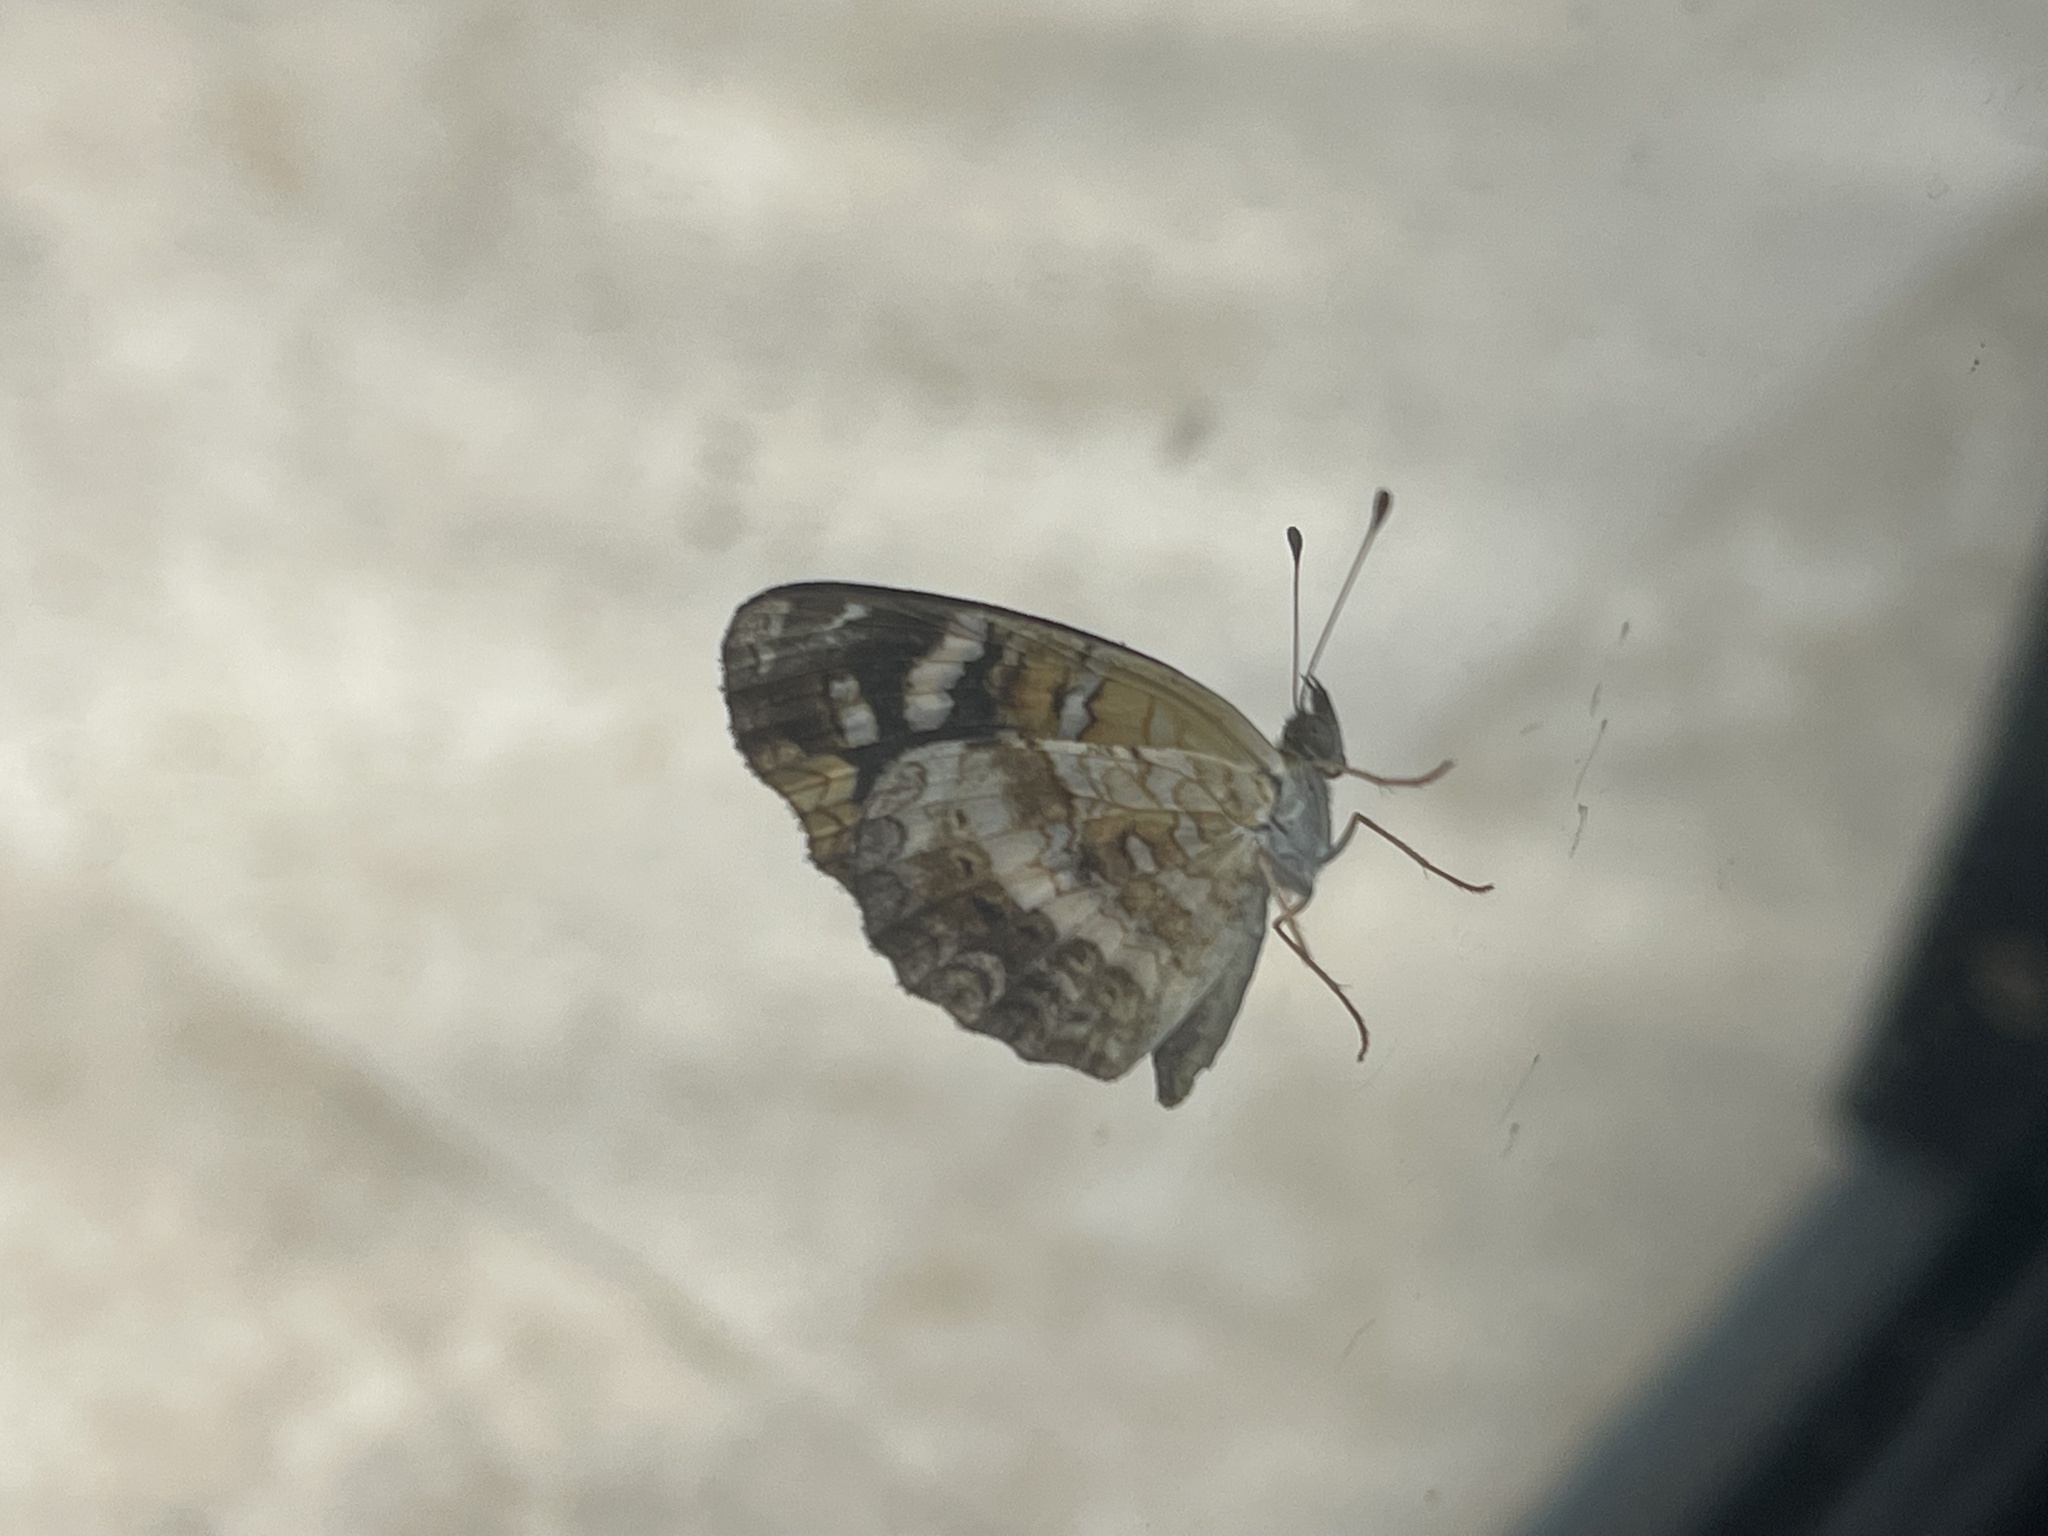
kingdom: Animalia
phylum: Arthropoda
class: Insecta
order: Lepidoptera
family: Nymphalidae
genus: Anthanassa
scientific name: Anthanassa tulcis
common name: Pale-banded crescent
